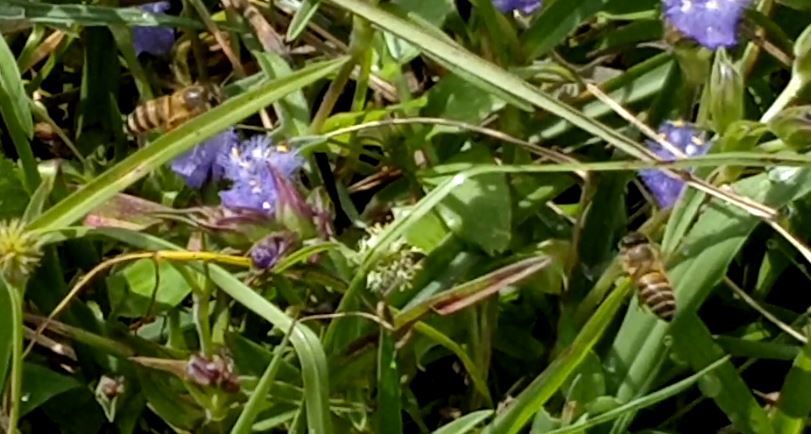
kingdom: Animalia
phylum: Arthropoda
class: Insecta
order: Hymenoptera
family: Apidae
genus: Apis
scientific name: Apis cerana
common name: Honey bee
